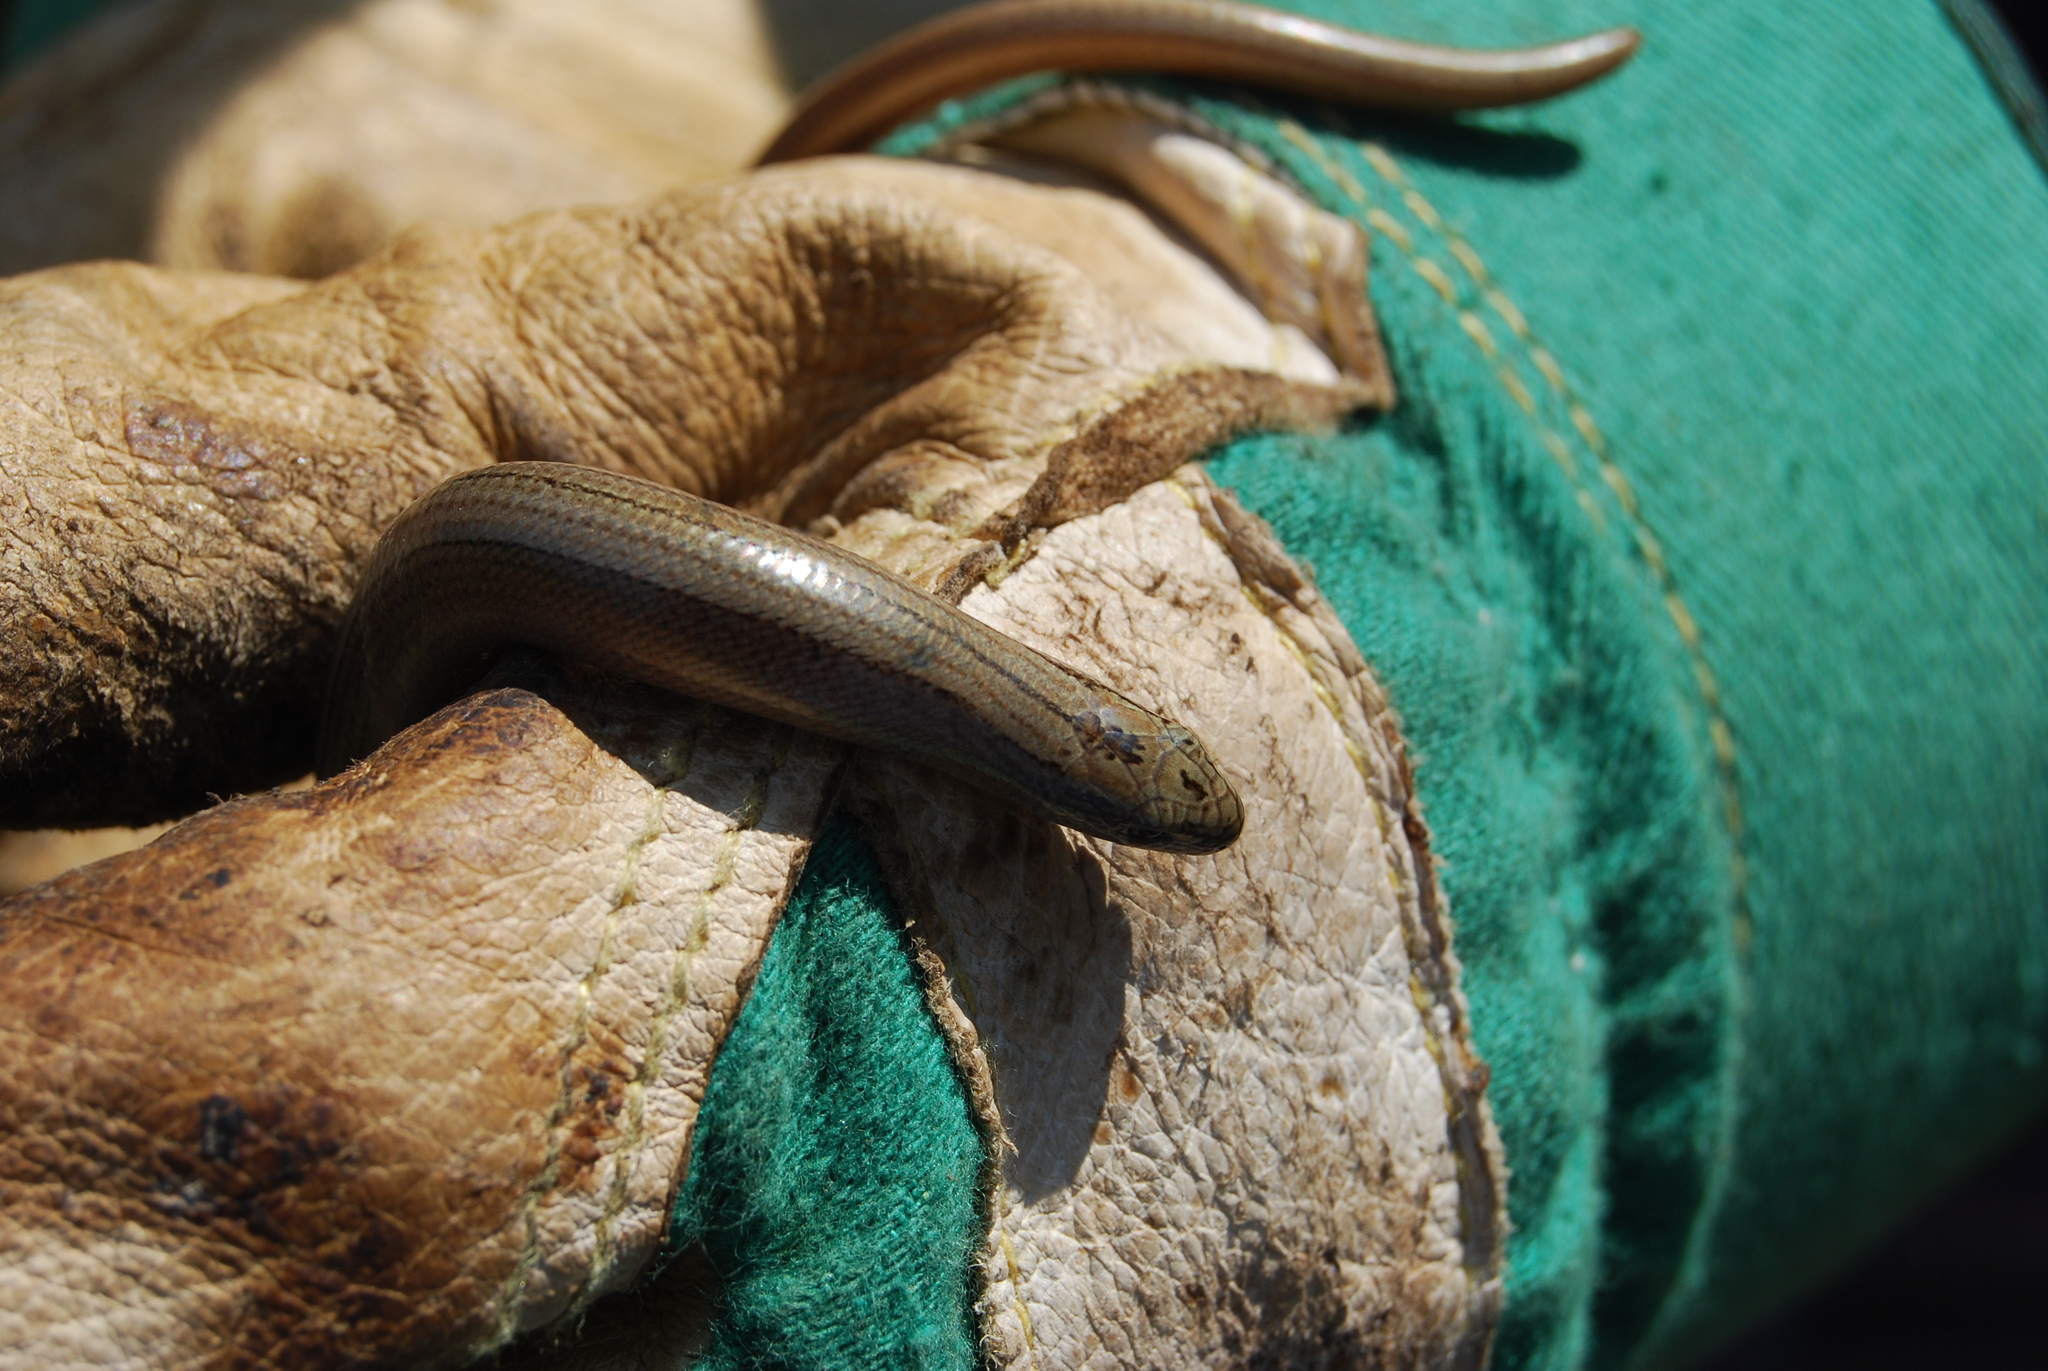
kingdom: Animalia
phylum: Chordata
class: Squamata
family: Anguidae
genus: Anguis
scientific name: Anguis fragilis
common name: Slow worm
